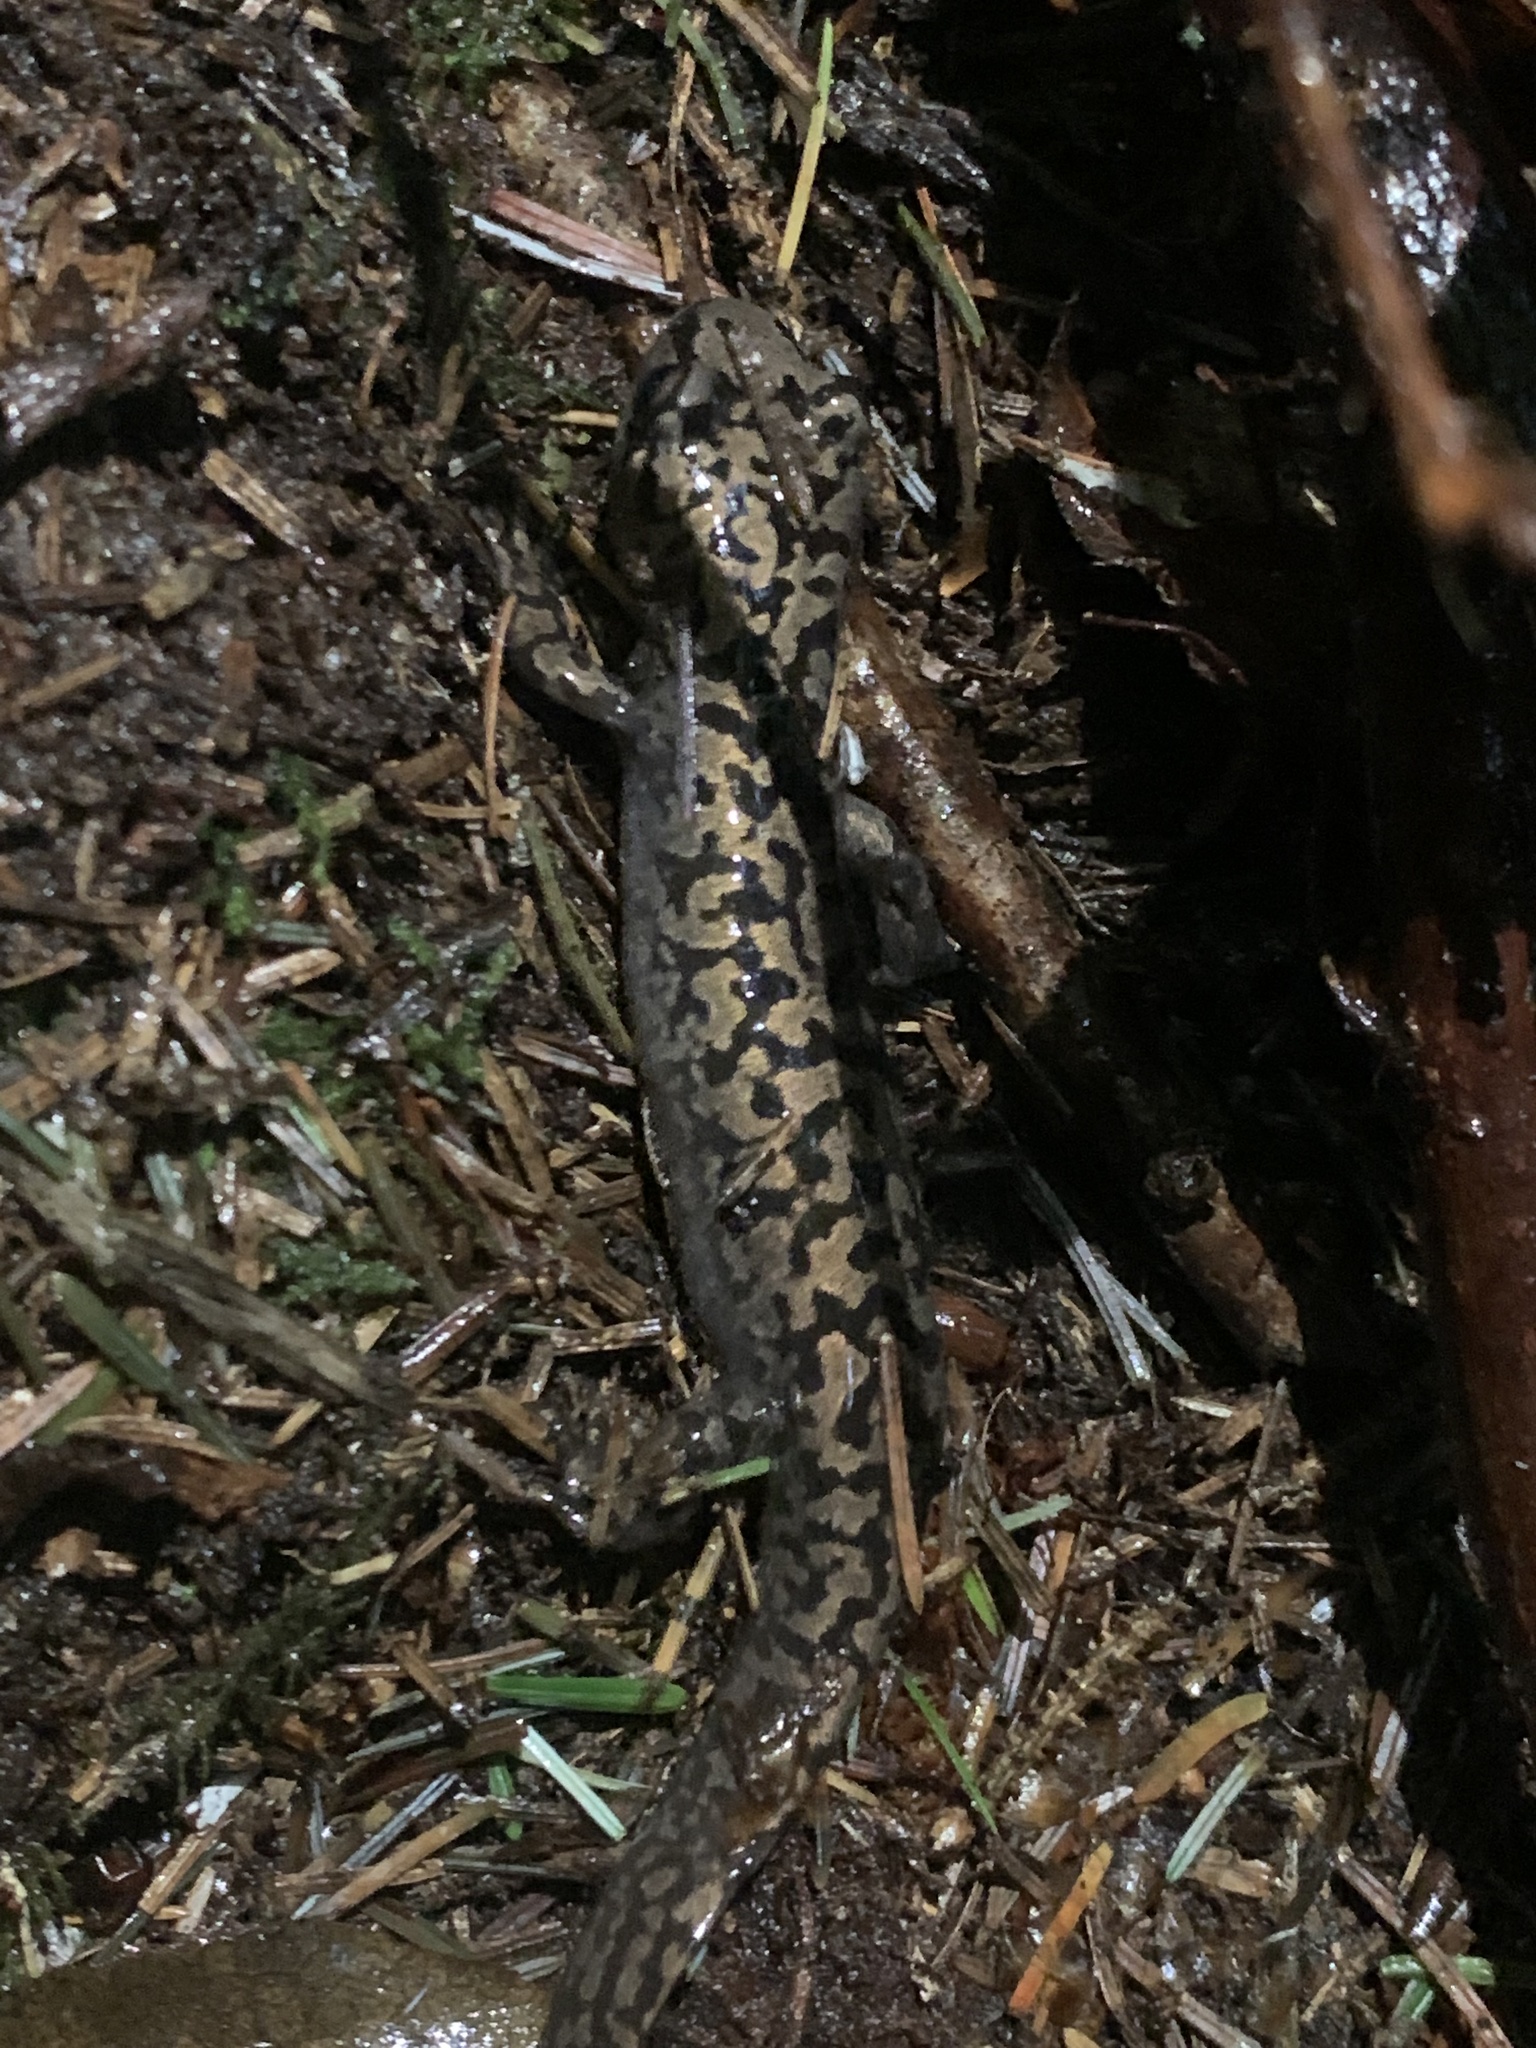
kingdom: Animalia
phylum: Chordata
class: Amphibia
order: Caudata
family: Ambystomatidae
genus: Dicamptodon
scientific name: Dicamptodon tenebrosus
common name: Coastal giant salamander
